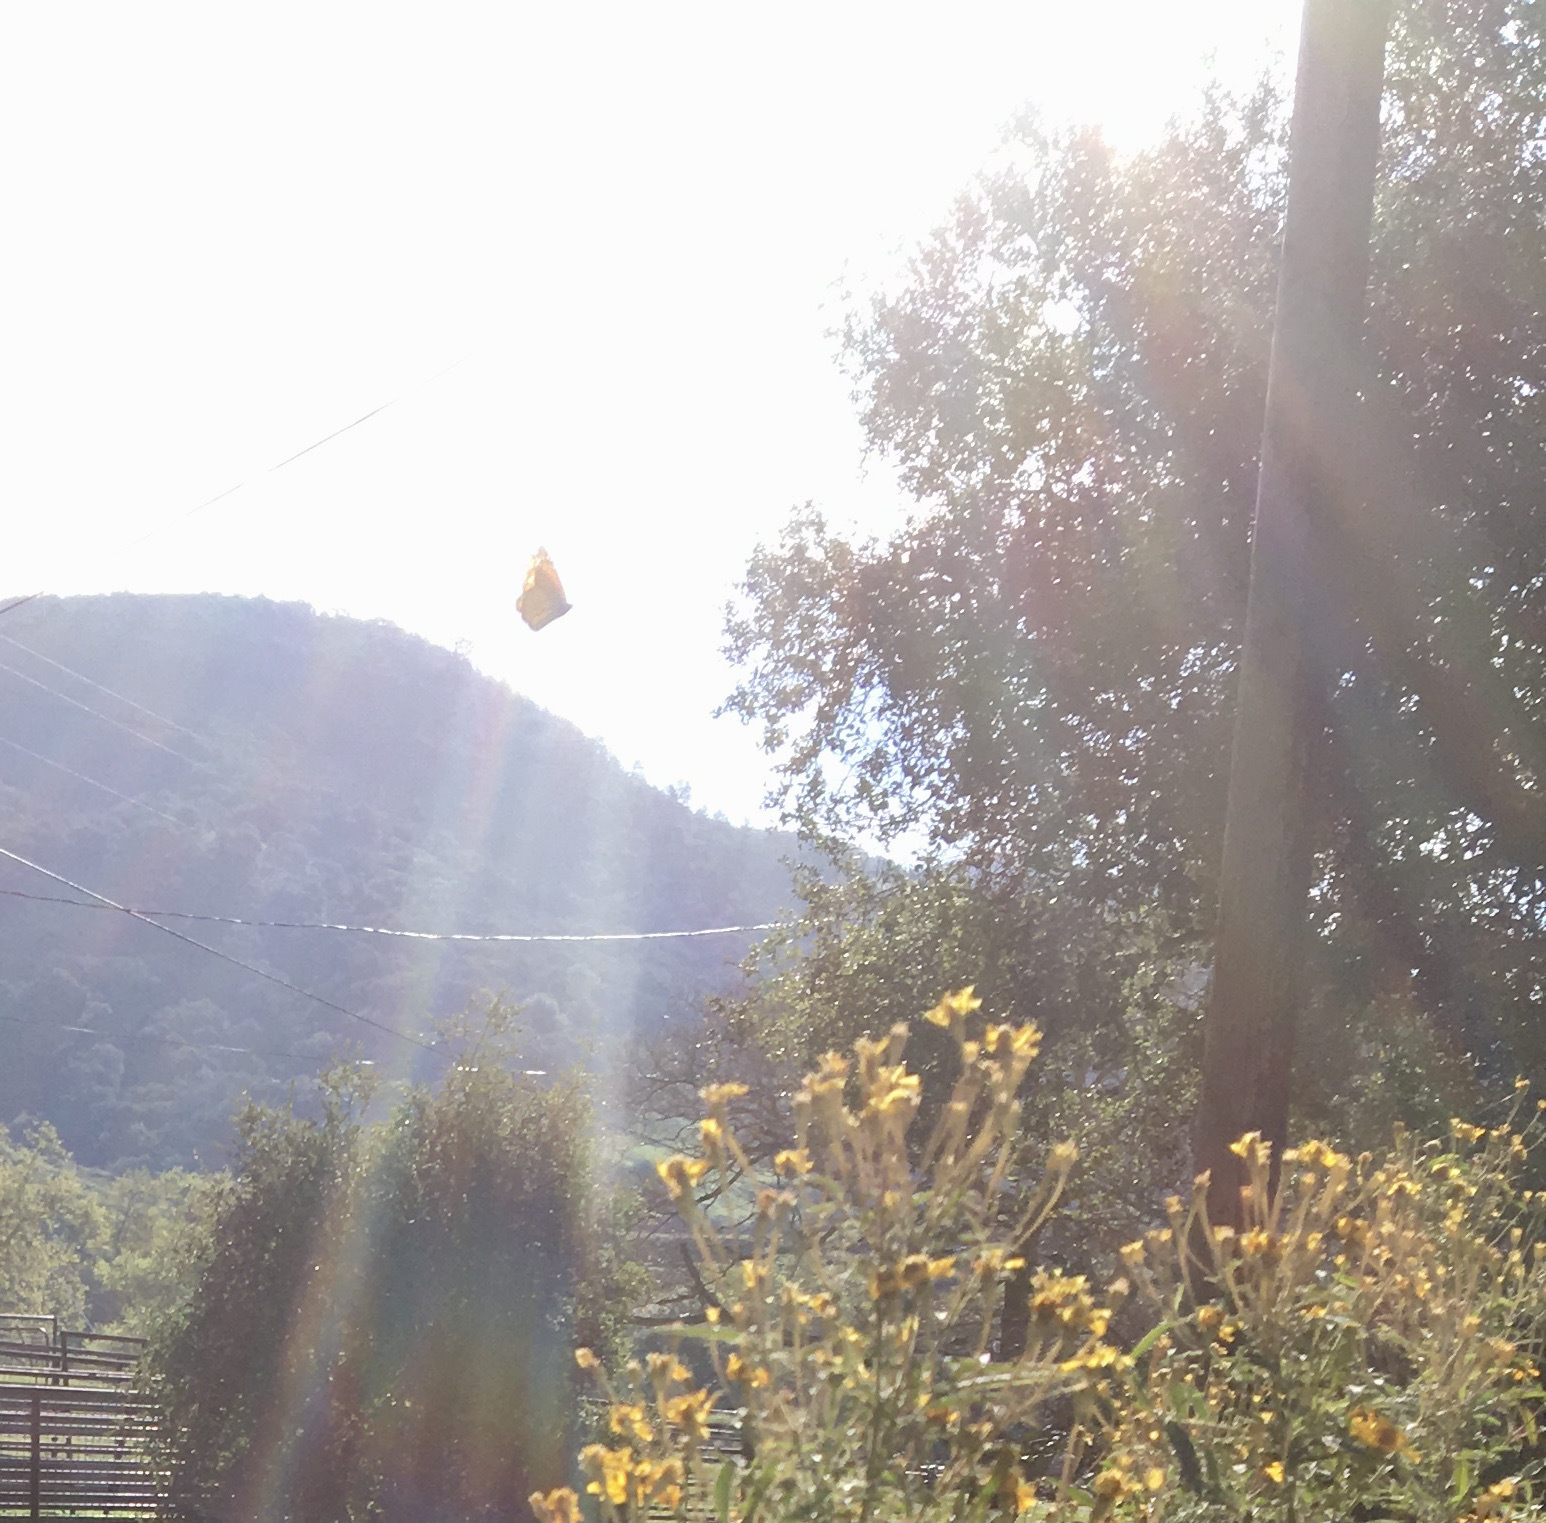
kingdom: Animalia
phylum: Arthropoda
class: Insecta
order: Lepidoptera
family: Nymphalidae
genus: Danaus
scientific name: Danaus plexippus
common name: Monarch
